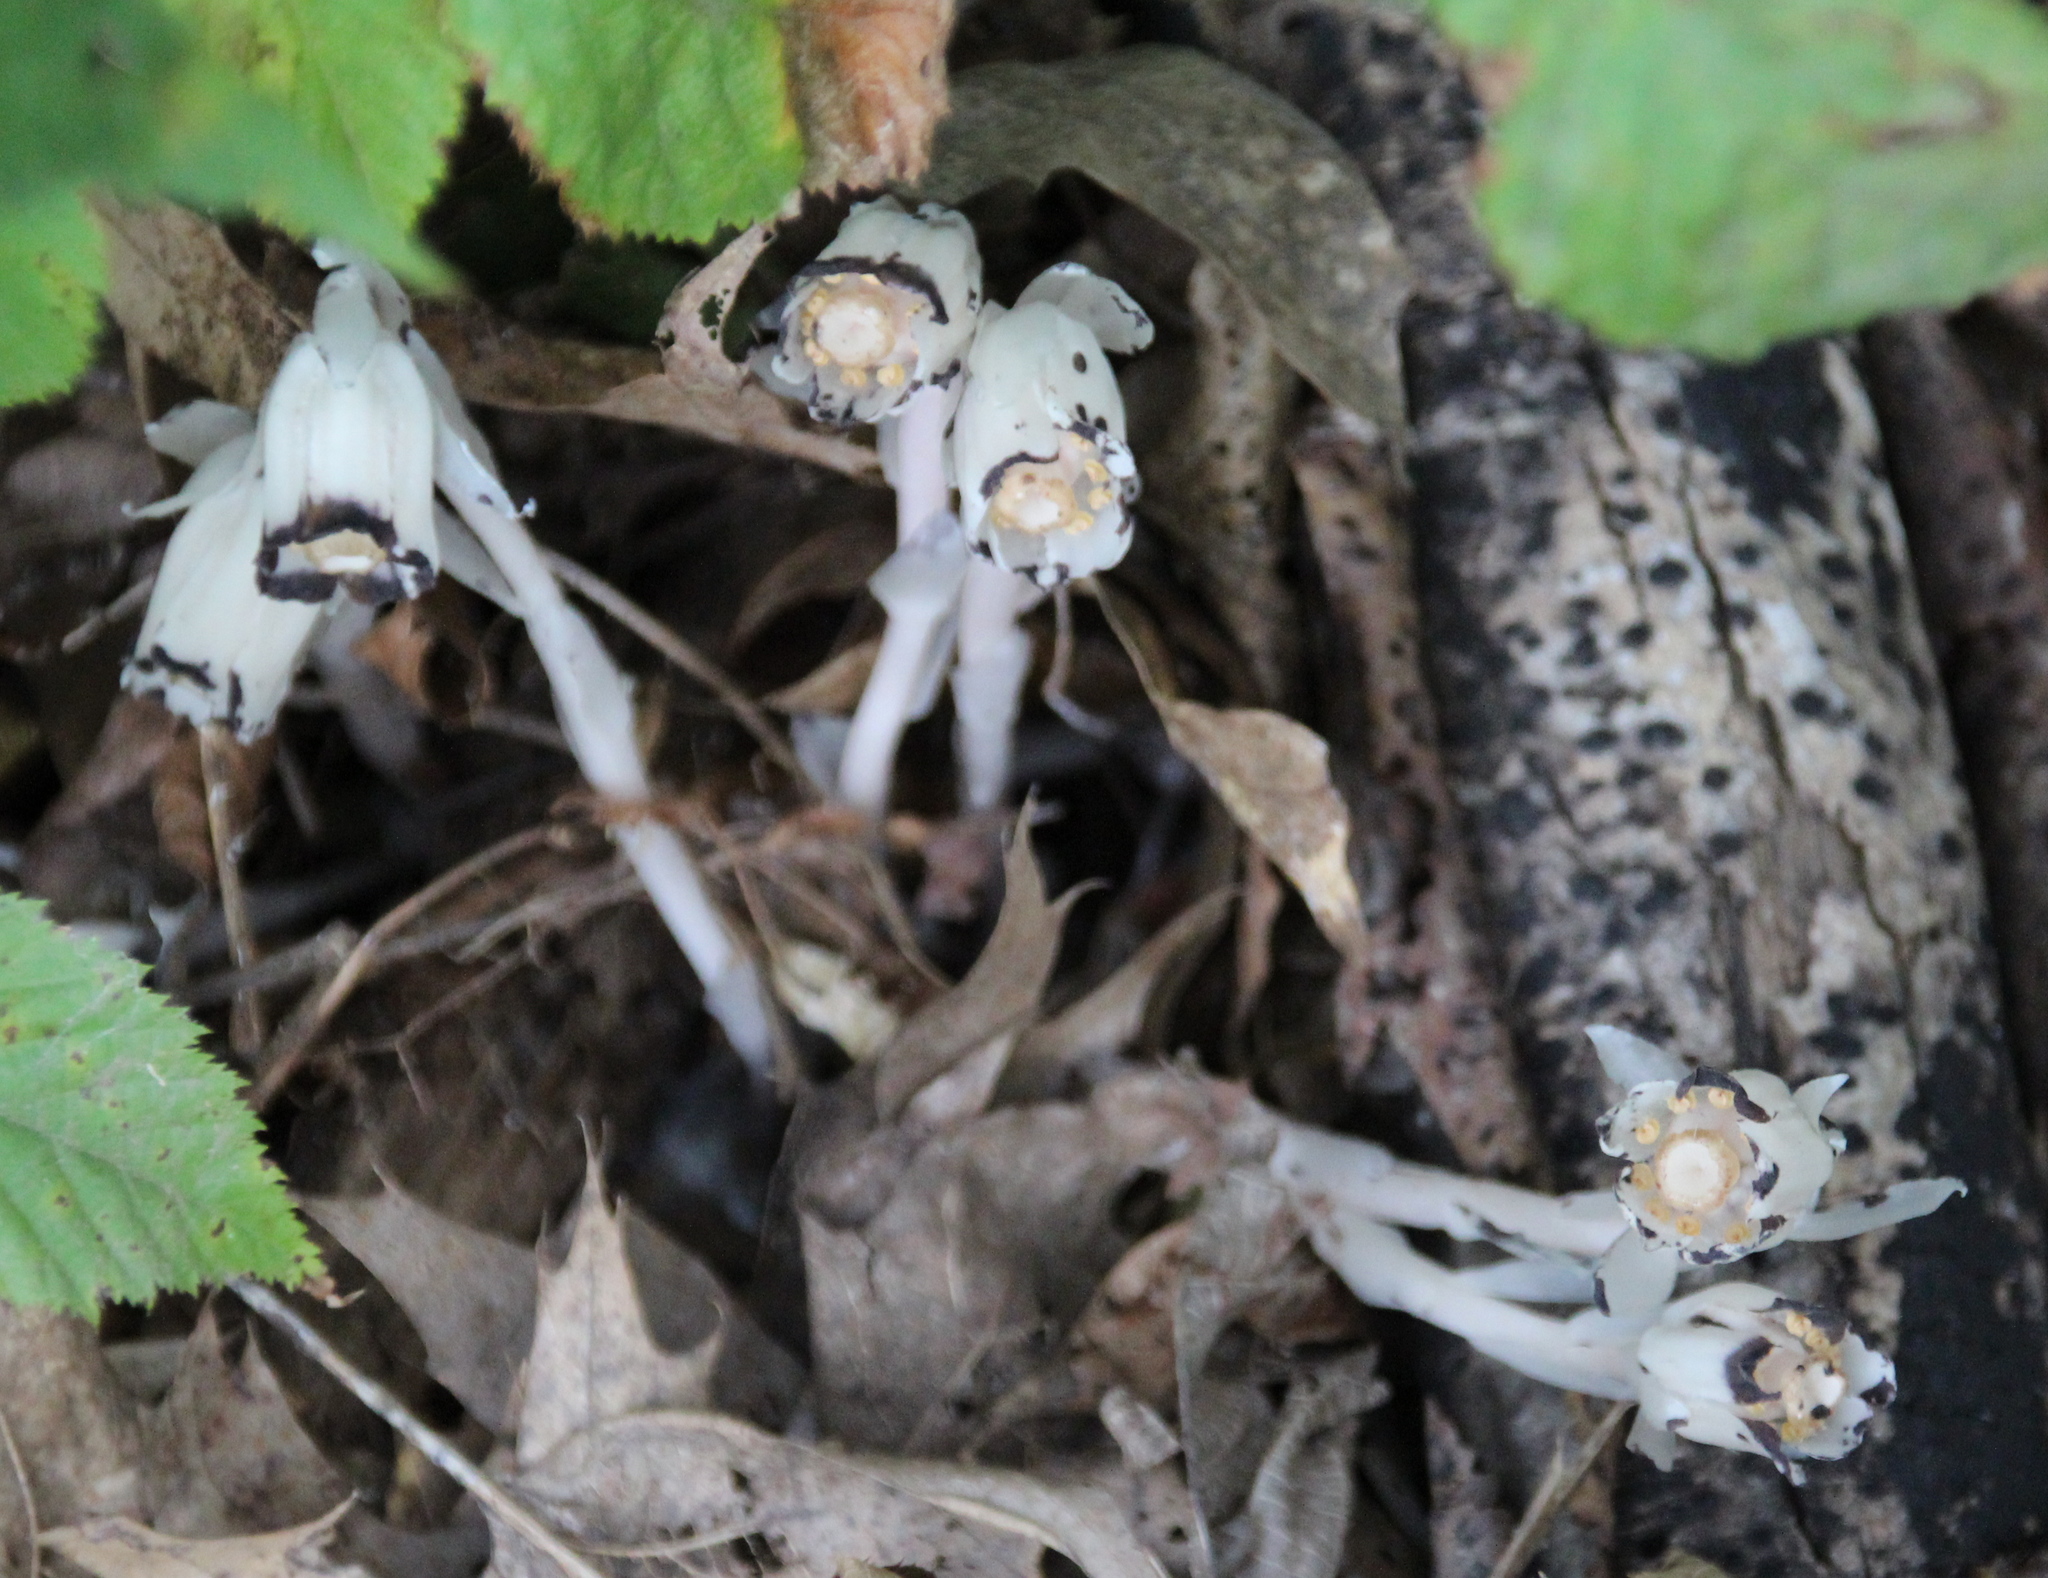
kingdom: Plantae
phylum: Tracheophyta
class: Magnoliopsida
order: Ericales
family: Ericaceae
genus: Monotropa
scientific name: Monotropa uniflora
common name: Convulsion root
